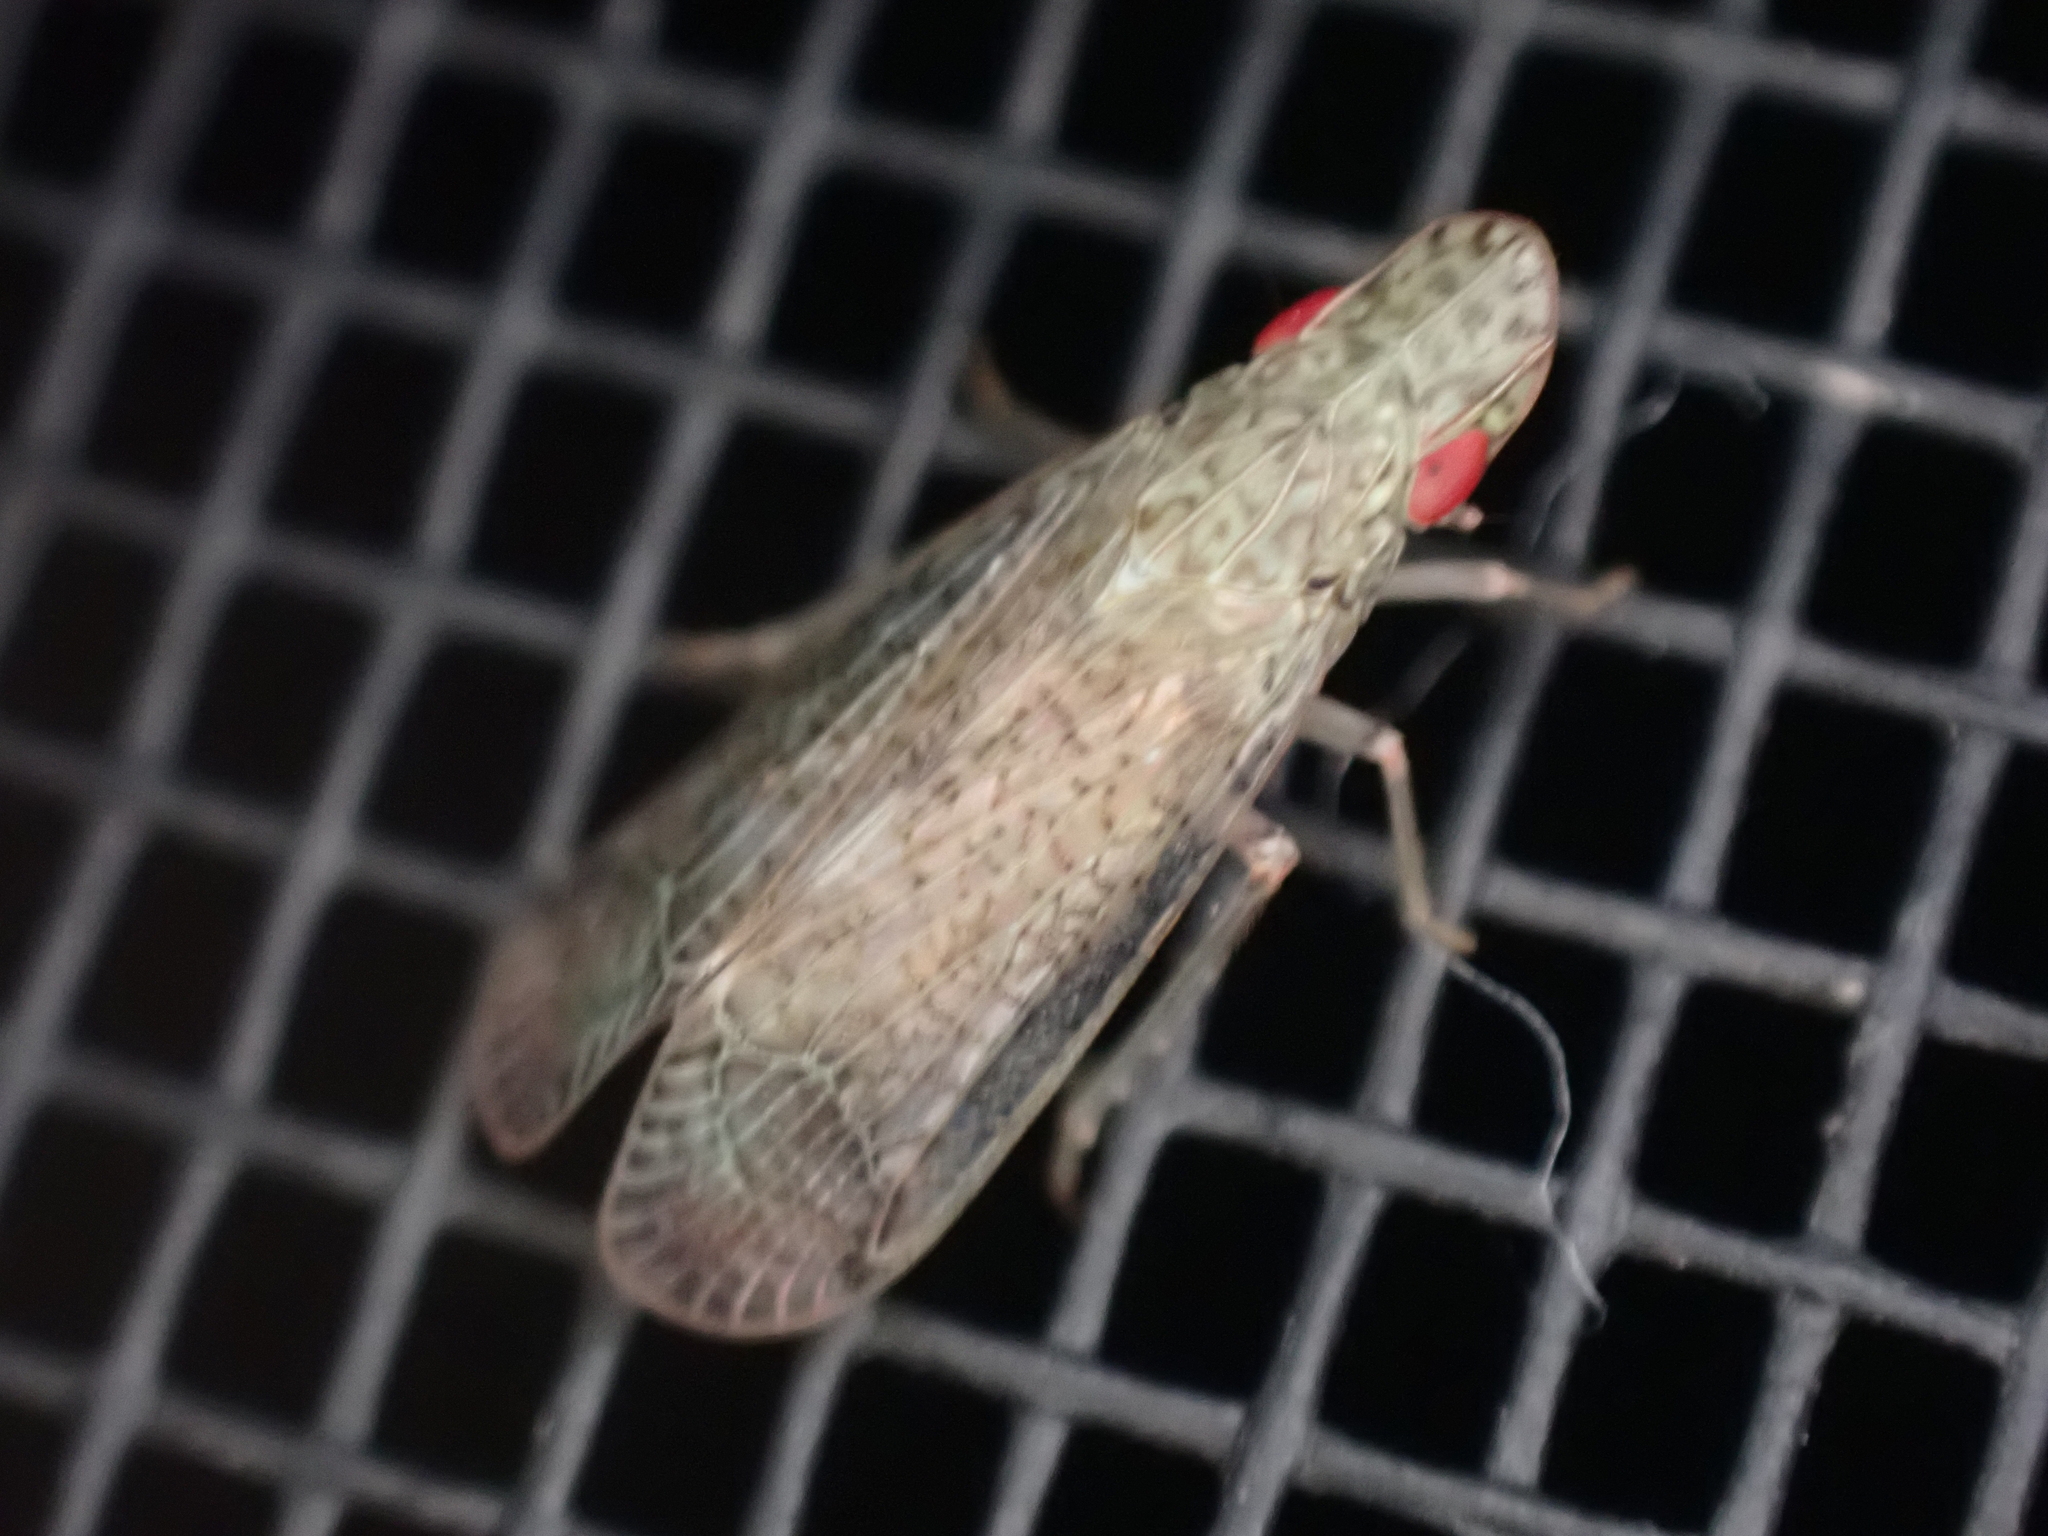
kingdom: Animalia
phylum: Arthropoda
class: Insecta
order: Hemiptera
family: Tropiduchidae
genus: Pelitropis
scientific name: Pelitropis rotulata
